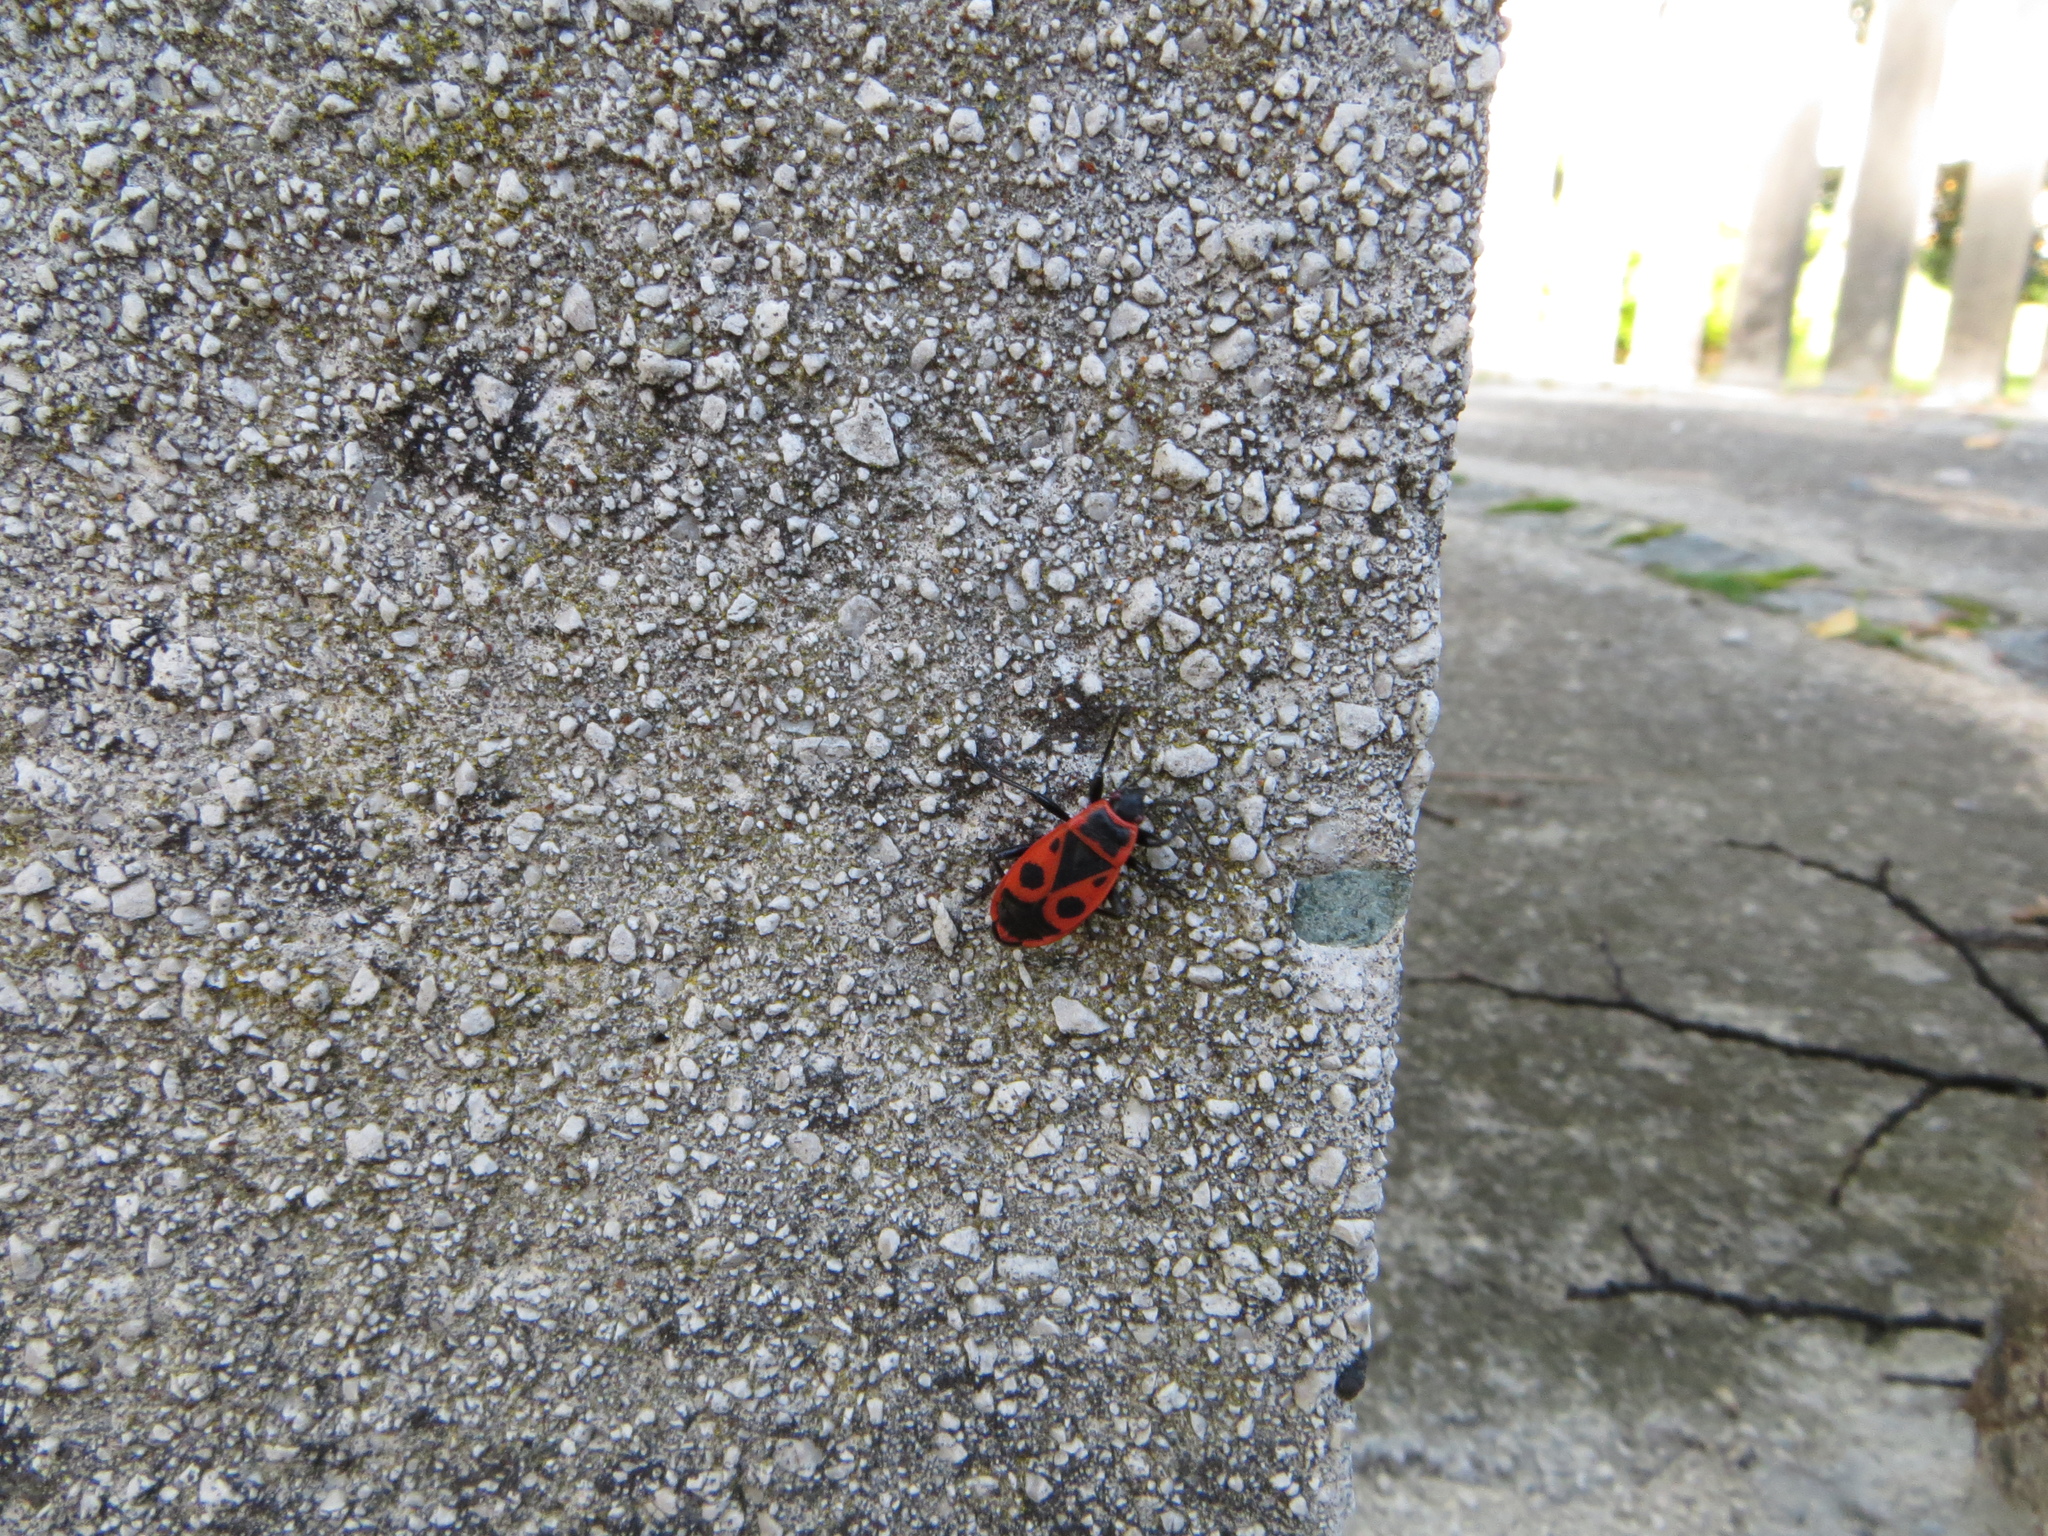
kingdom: Animalia
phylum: Arthropoda
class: Insecta
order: Hemiptera
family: Pyrrhocoridae
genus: Pyrrhocoris
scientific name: Pyrrhocoris apterus
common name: Firebug
